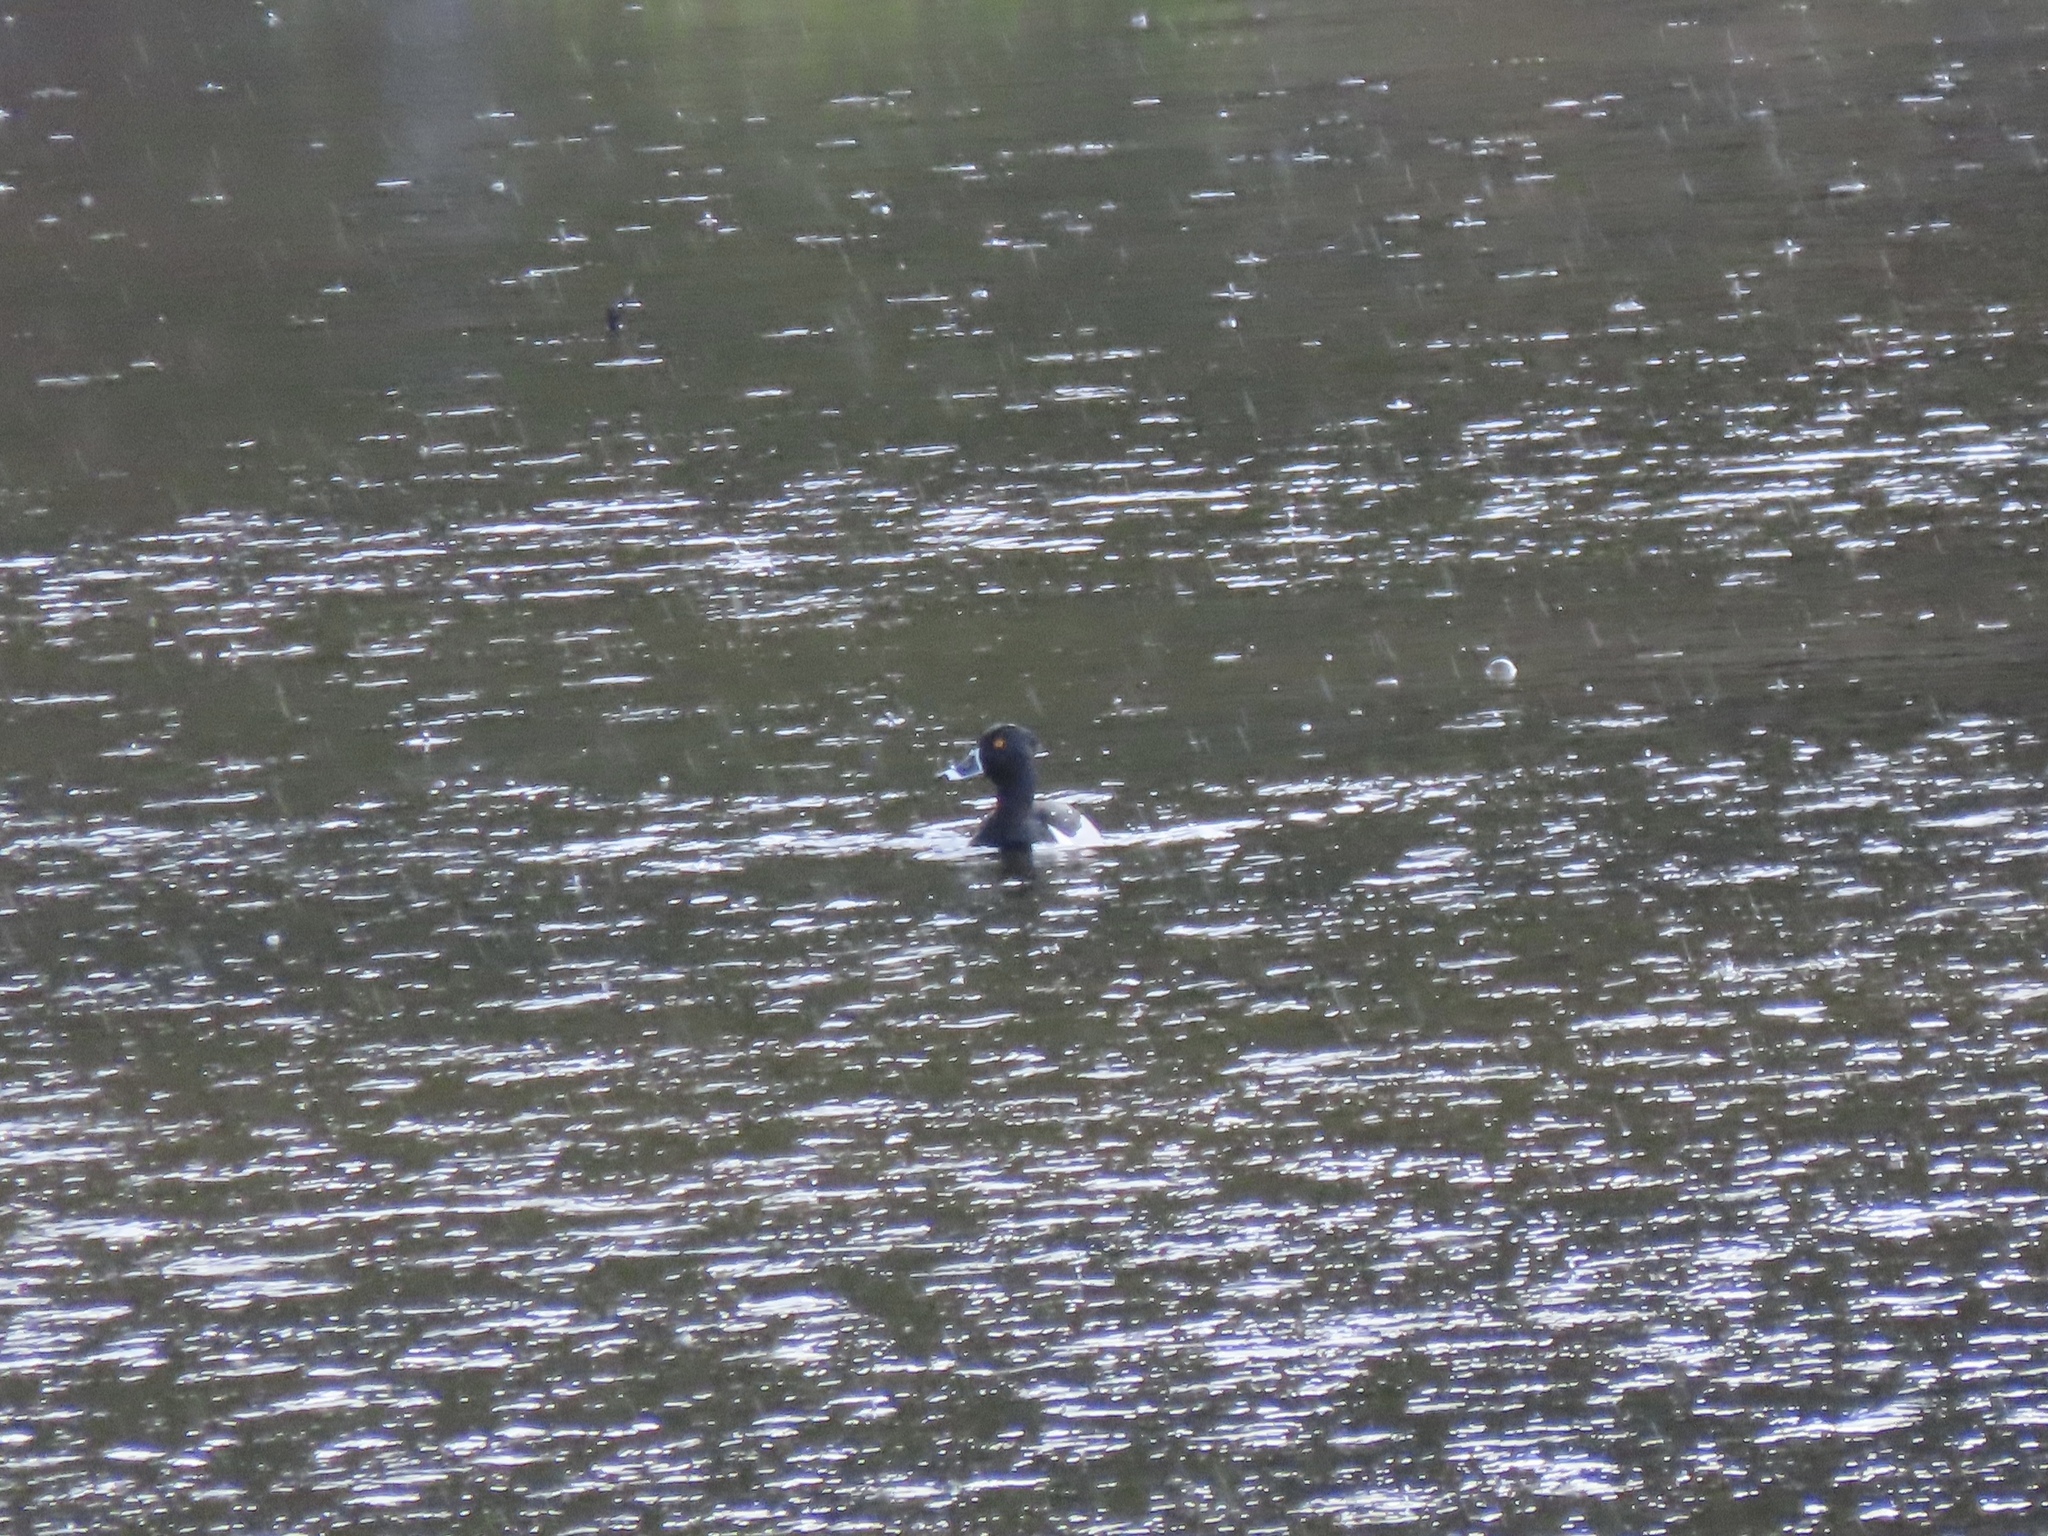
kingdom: Animalia
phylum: Chordata
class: Aves
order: Anseriformes
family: Anatidae
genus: Aythya
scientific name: Aythya collaris
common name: Ring-necked duck
